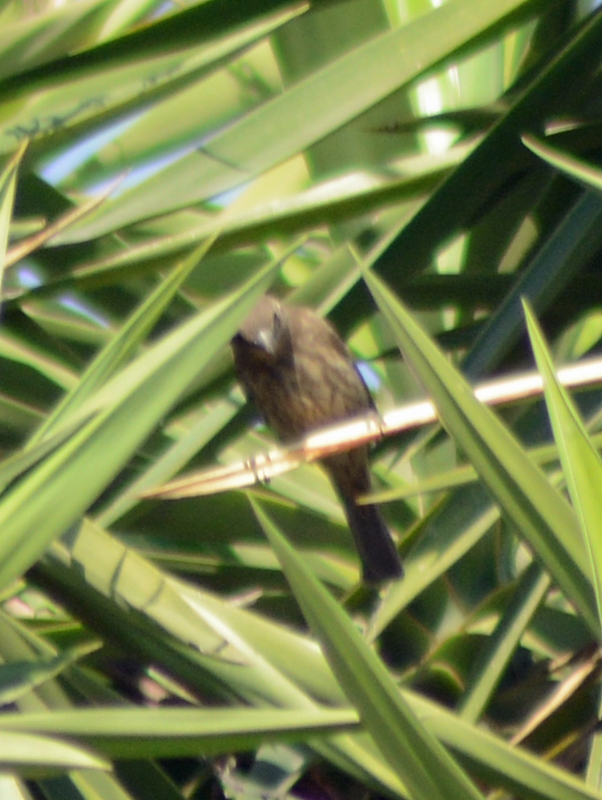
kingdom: Animalia
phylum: Chordata
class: Aves
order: Passeriformes
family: Fringillidae
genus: Haemorhous
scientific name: Haemorhous mexicanus
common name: House finch
